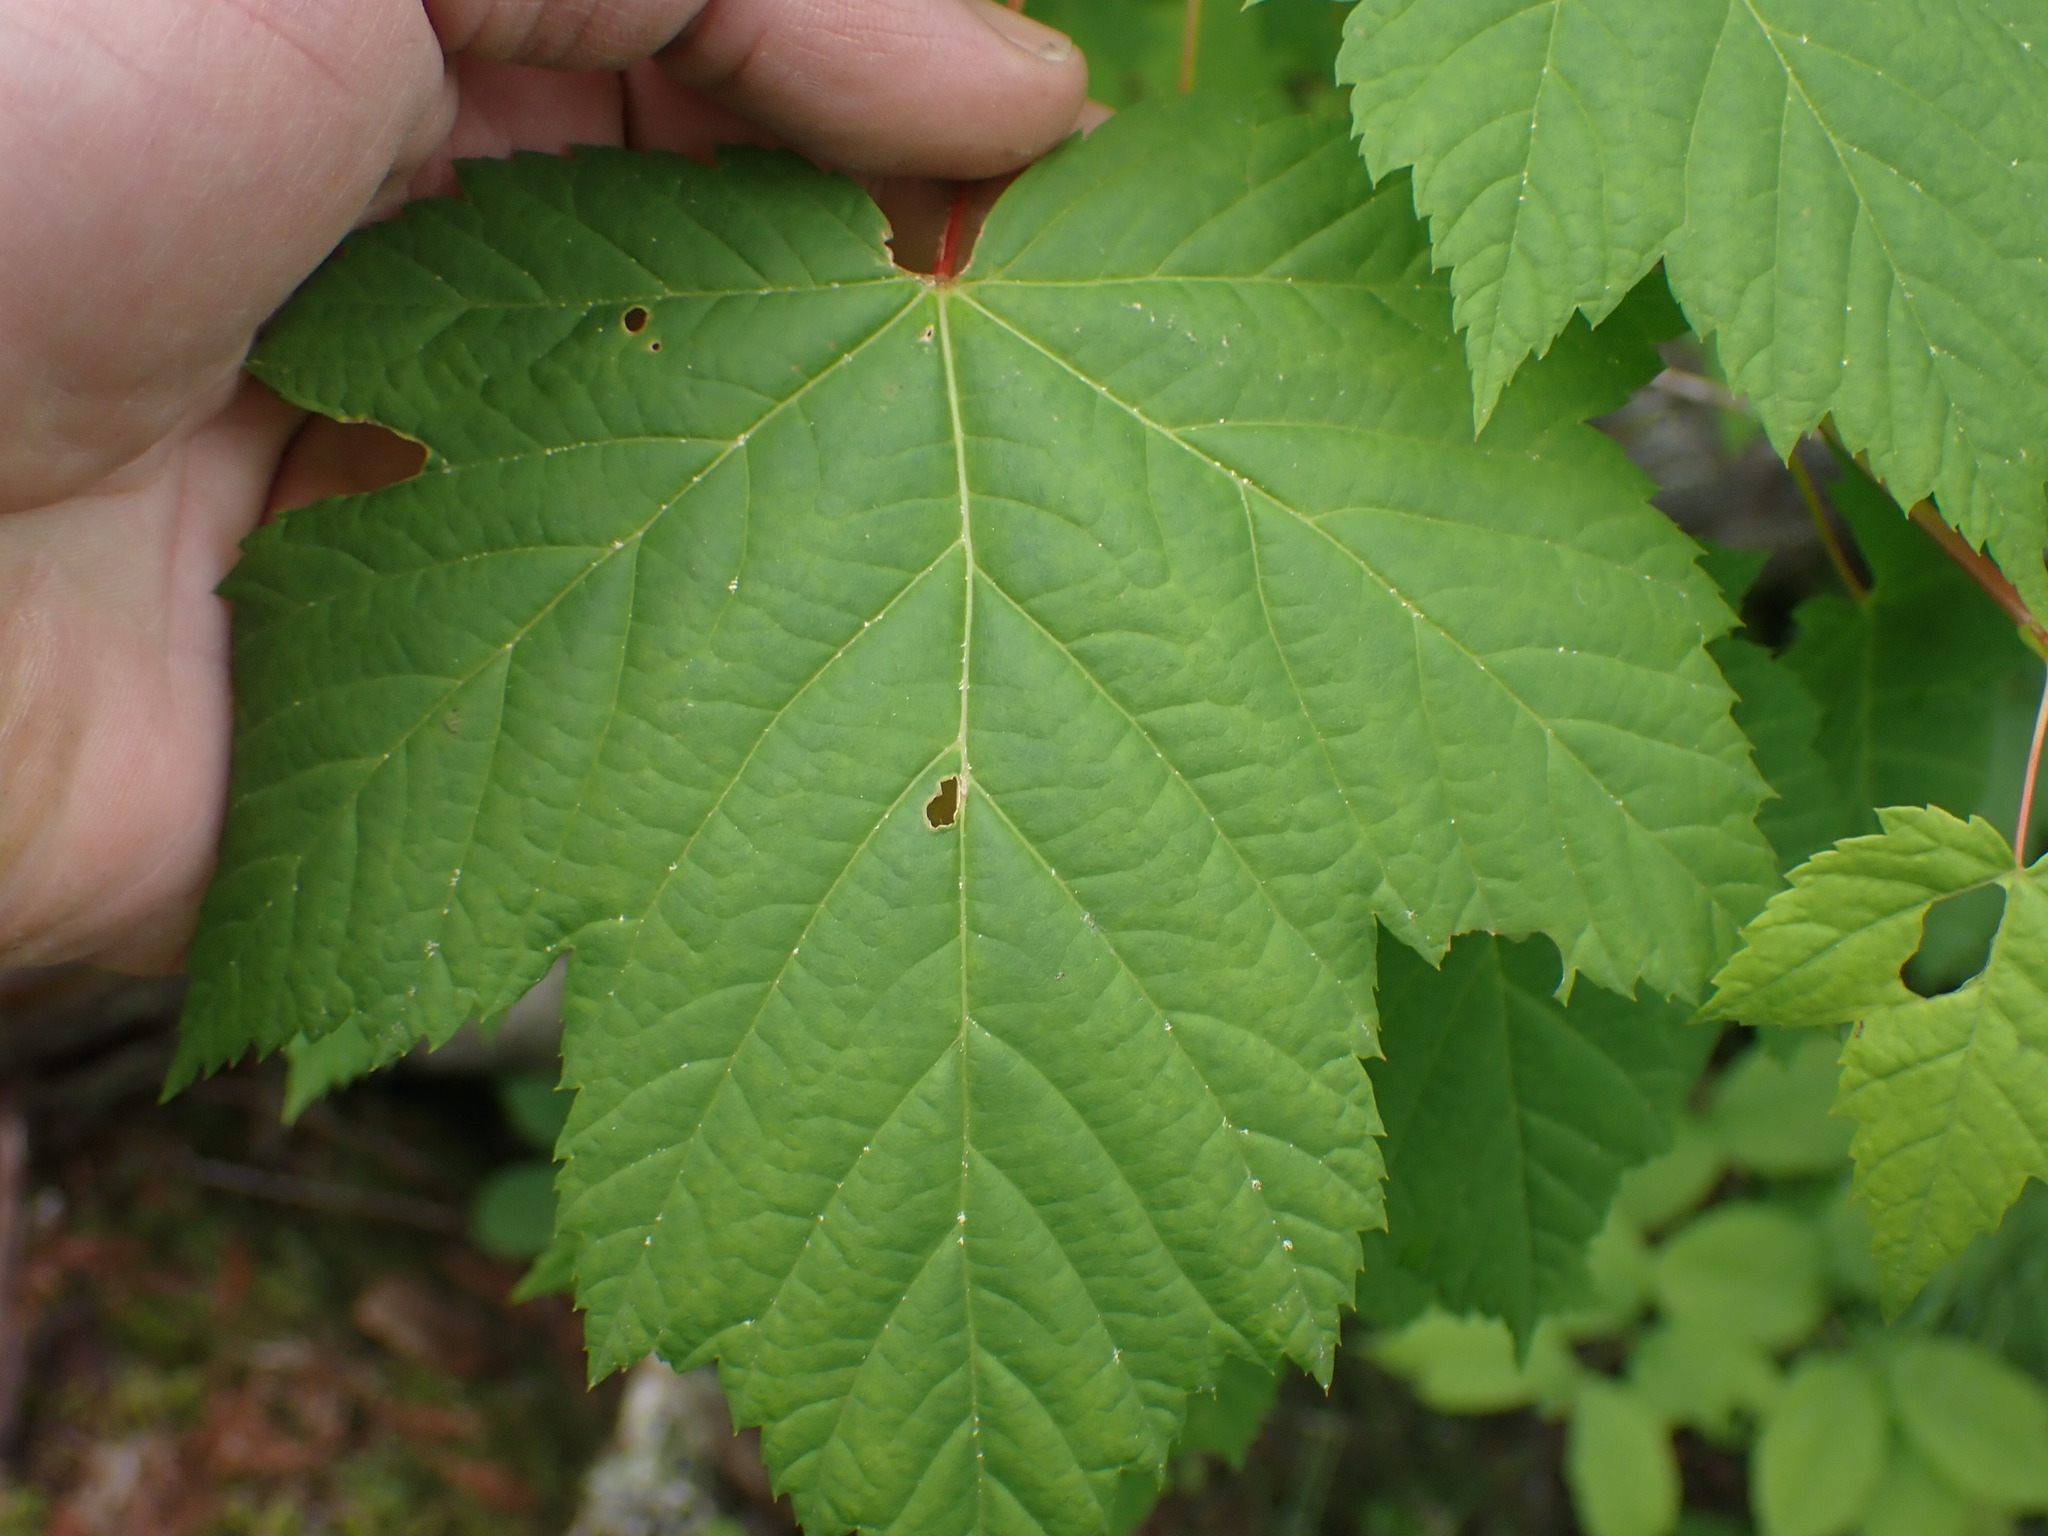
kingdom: Plantae
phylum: Tracheophyta
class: Magnoliopsida
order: Sapindales
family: Sapindaceae
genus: Acer
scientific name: Acer glabrum
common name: Rocky mountain maple
